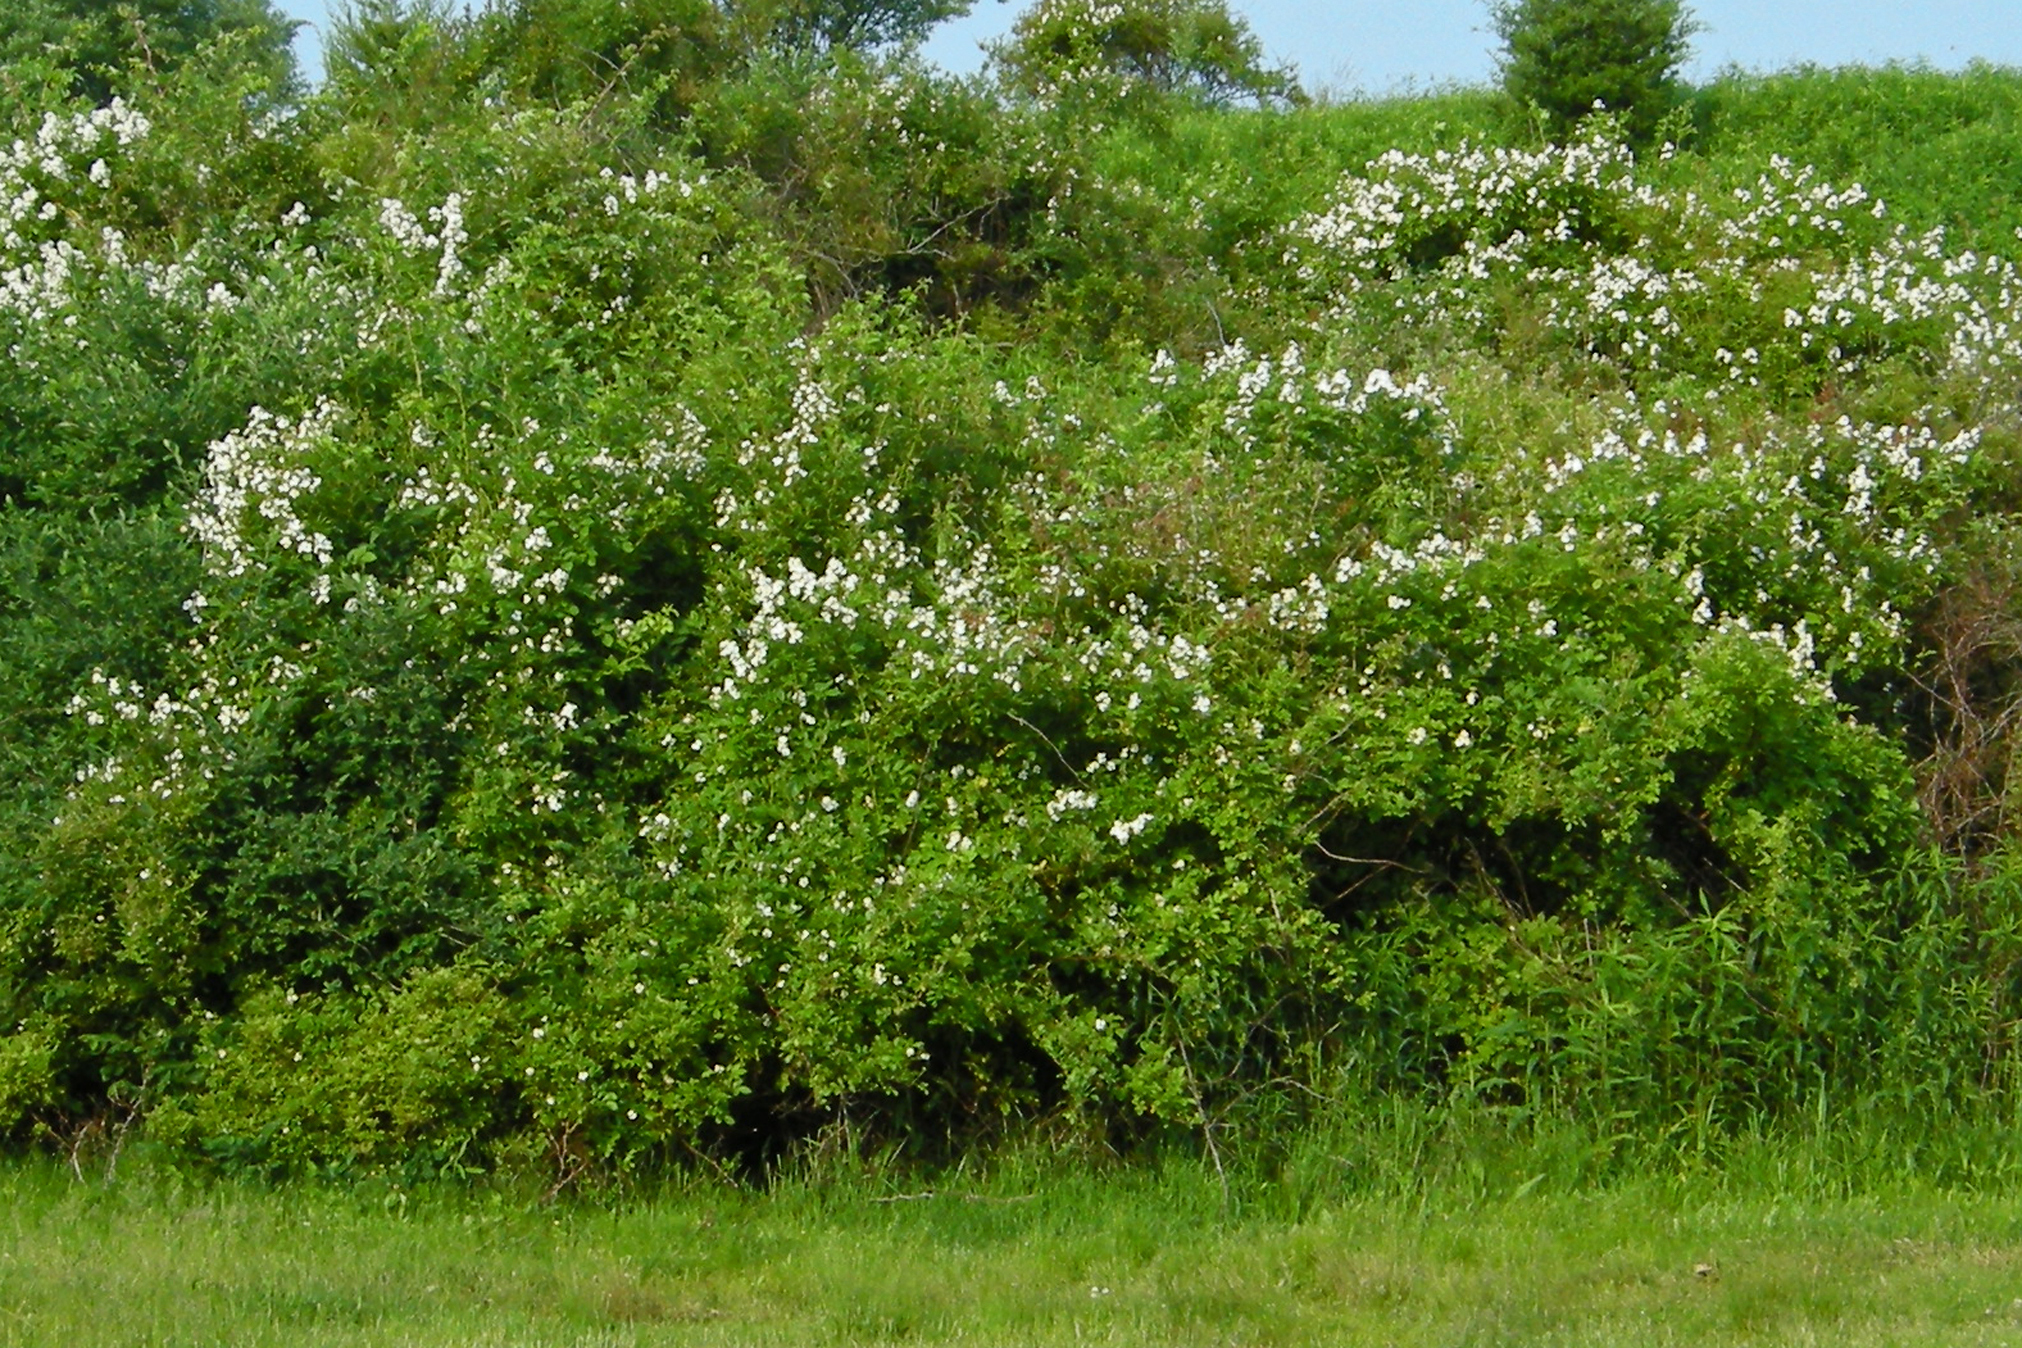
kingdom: Plantae
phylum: Tracheophyta
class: Magnoliopsida
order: Rosales
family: Rosaceae
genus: Rosa
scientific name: Rosa multiflora
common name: Multiflora rose
